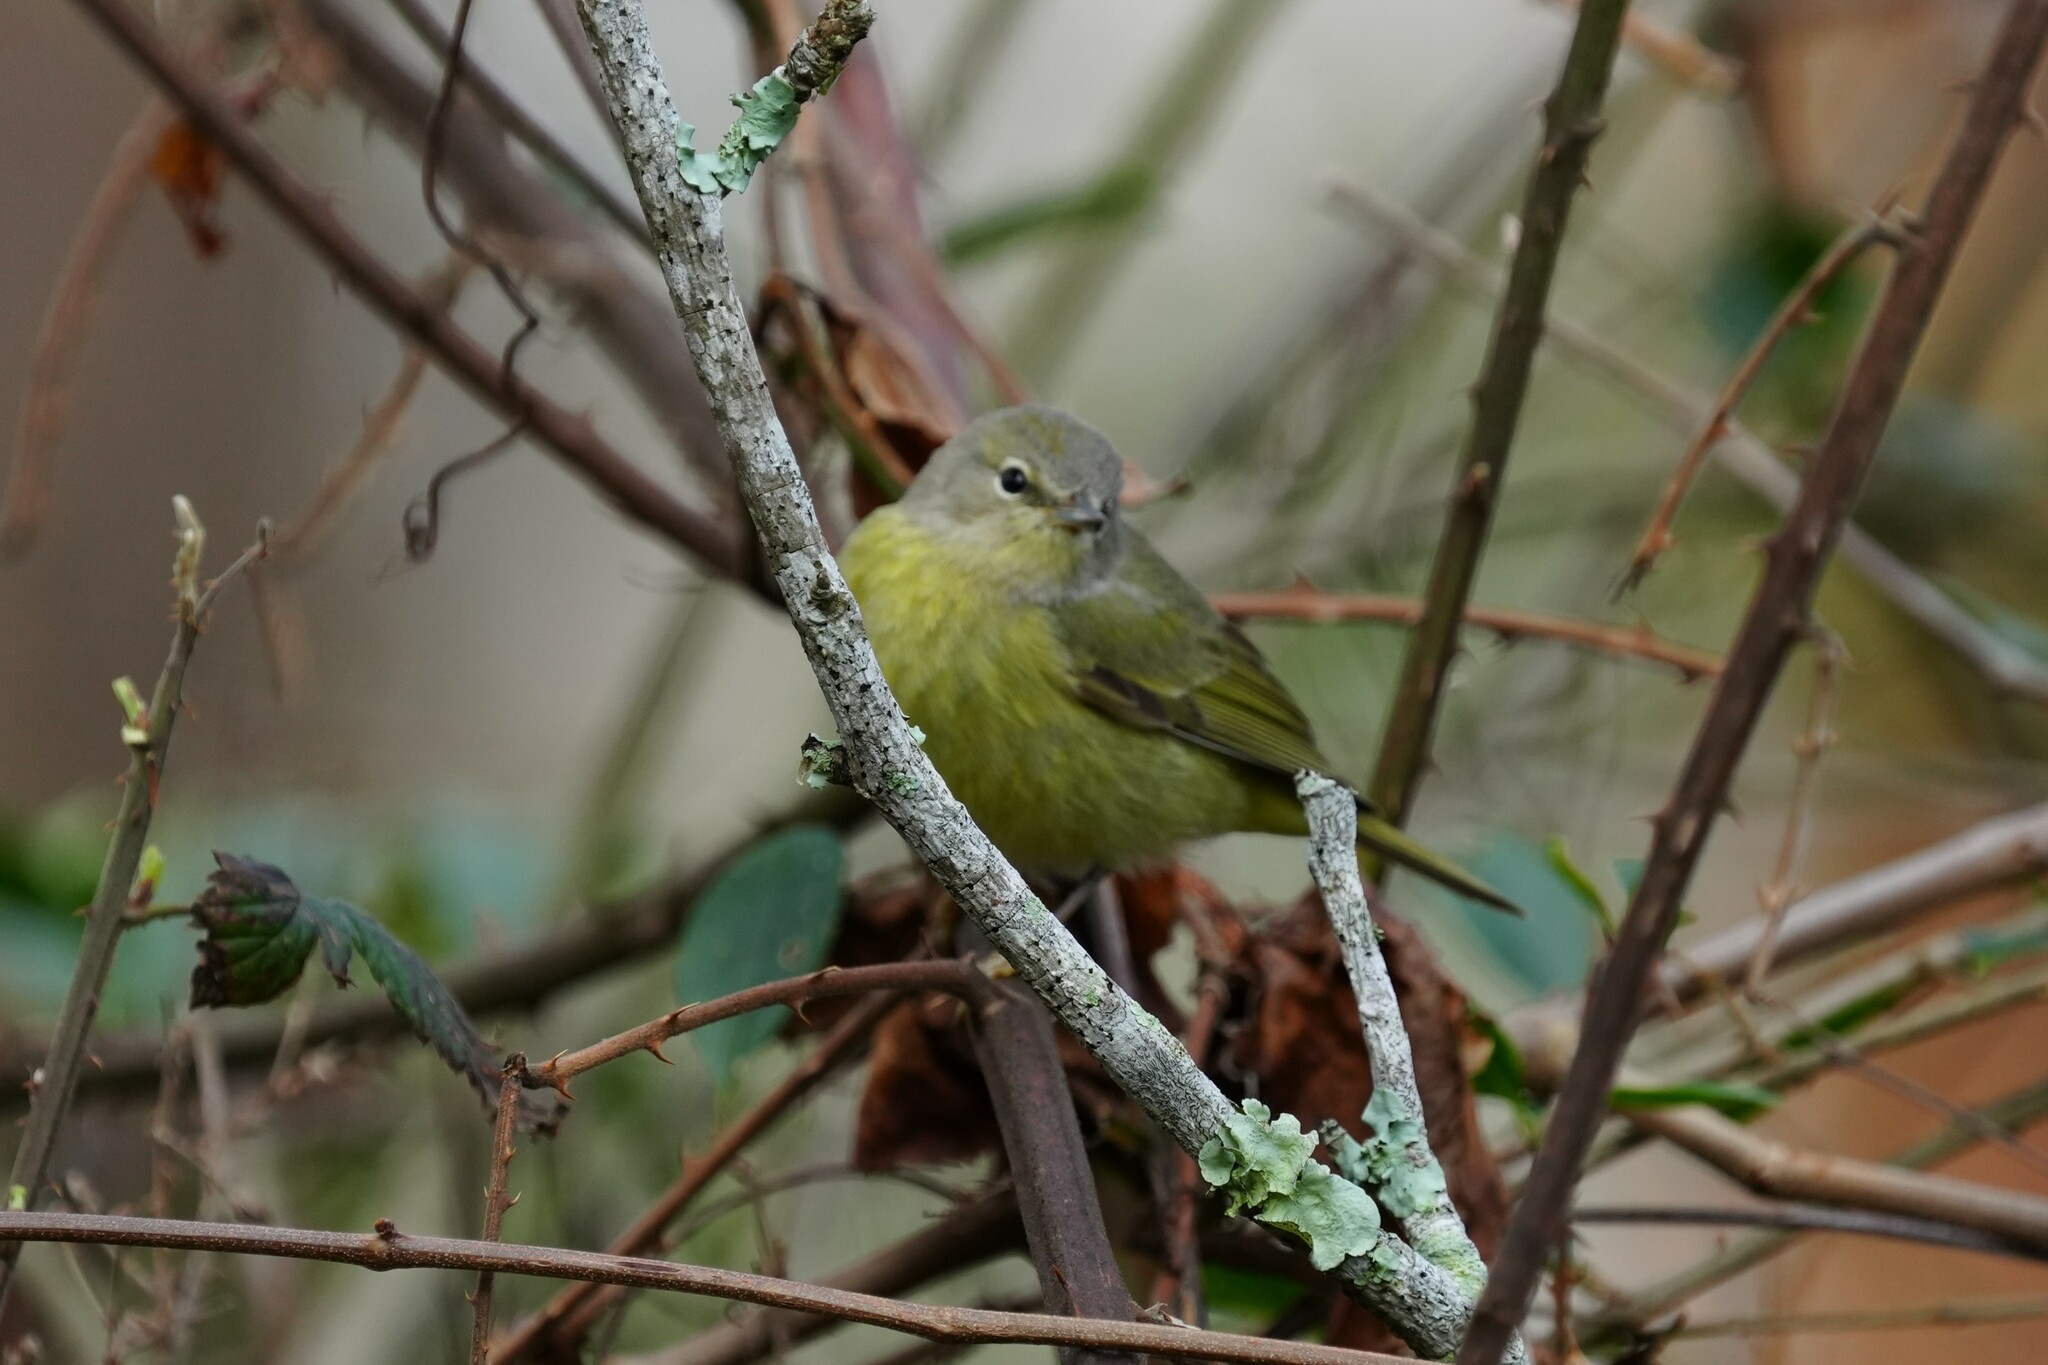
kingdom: Animalia
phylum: Chordata
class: Aves
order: Passeriformes
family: Parulidae
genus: Leiothlypis
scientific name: Leiothlypis celata
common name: Orange-crowned warbler
